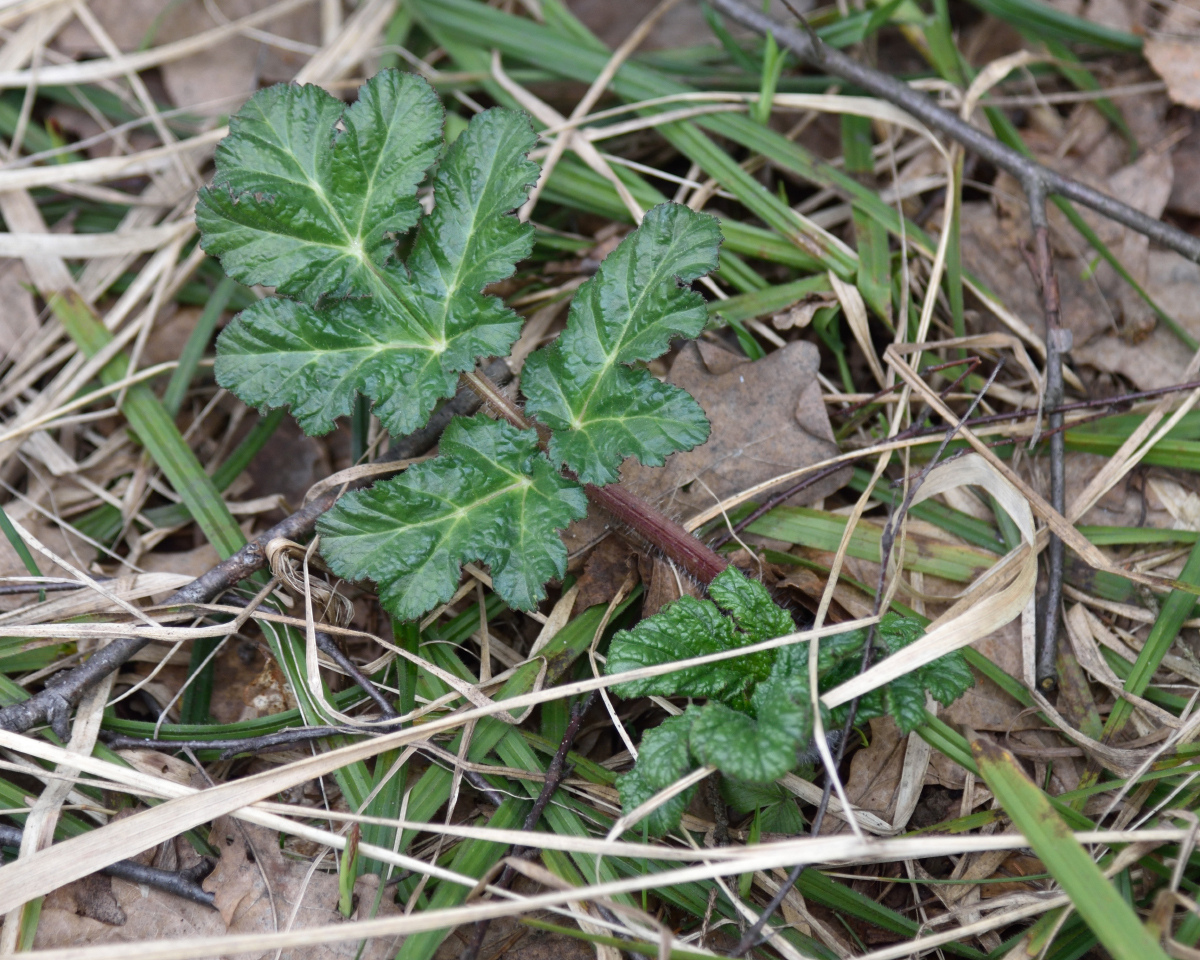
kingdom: Plantae
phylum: Tracheophyta
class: Magnoliopsida
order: Apiales
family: Apiaceae
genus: Heracleum
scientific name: Heracleum sosnowskyi
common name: Sosnowsky's hogweed
